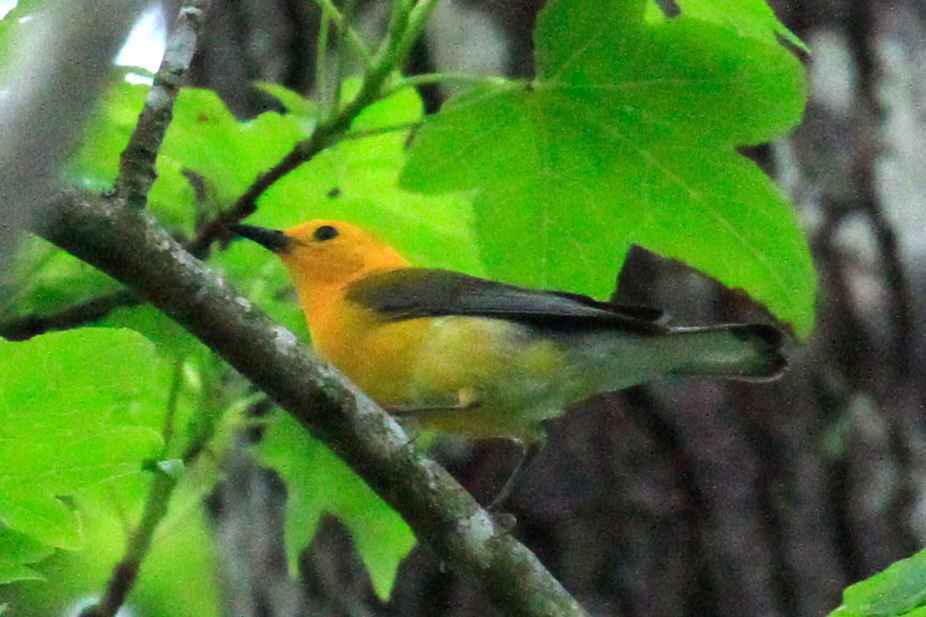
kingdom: Animalia
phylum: Chordata
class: Aves
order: Passeriformes
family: Parulidae
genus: Protonotaria
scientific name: Protonotaria citrea
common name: Prothonotary warbler
